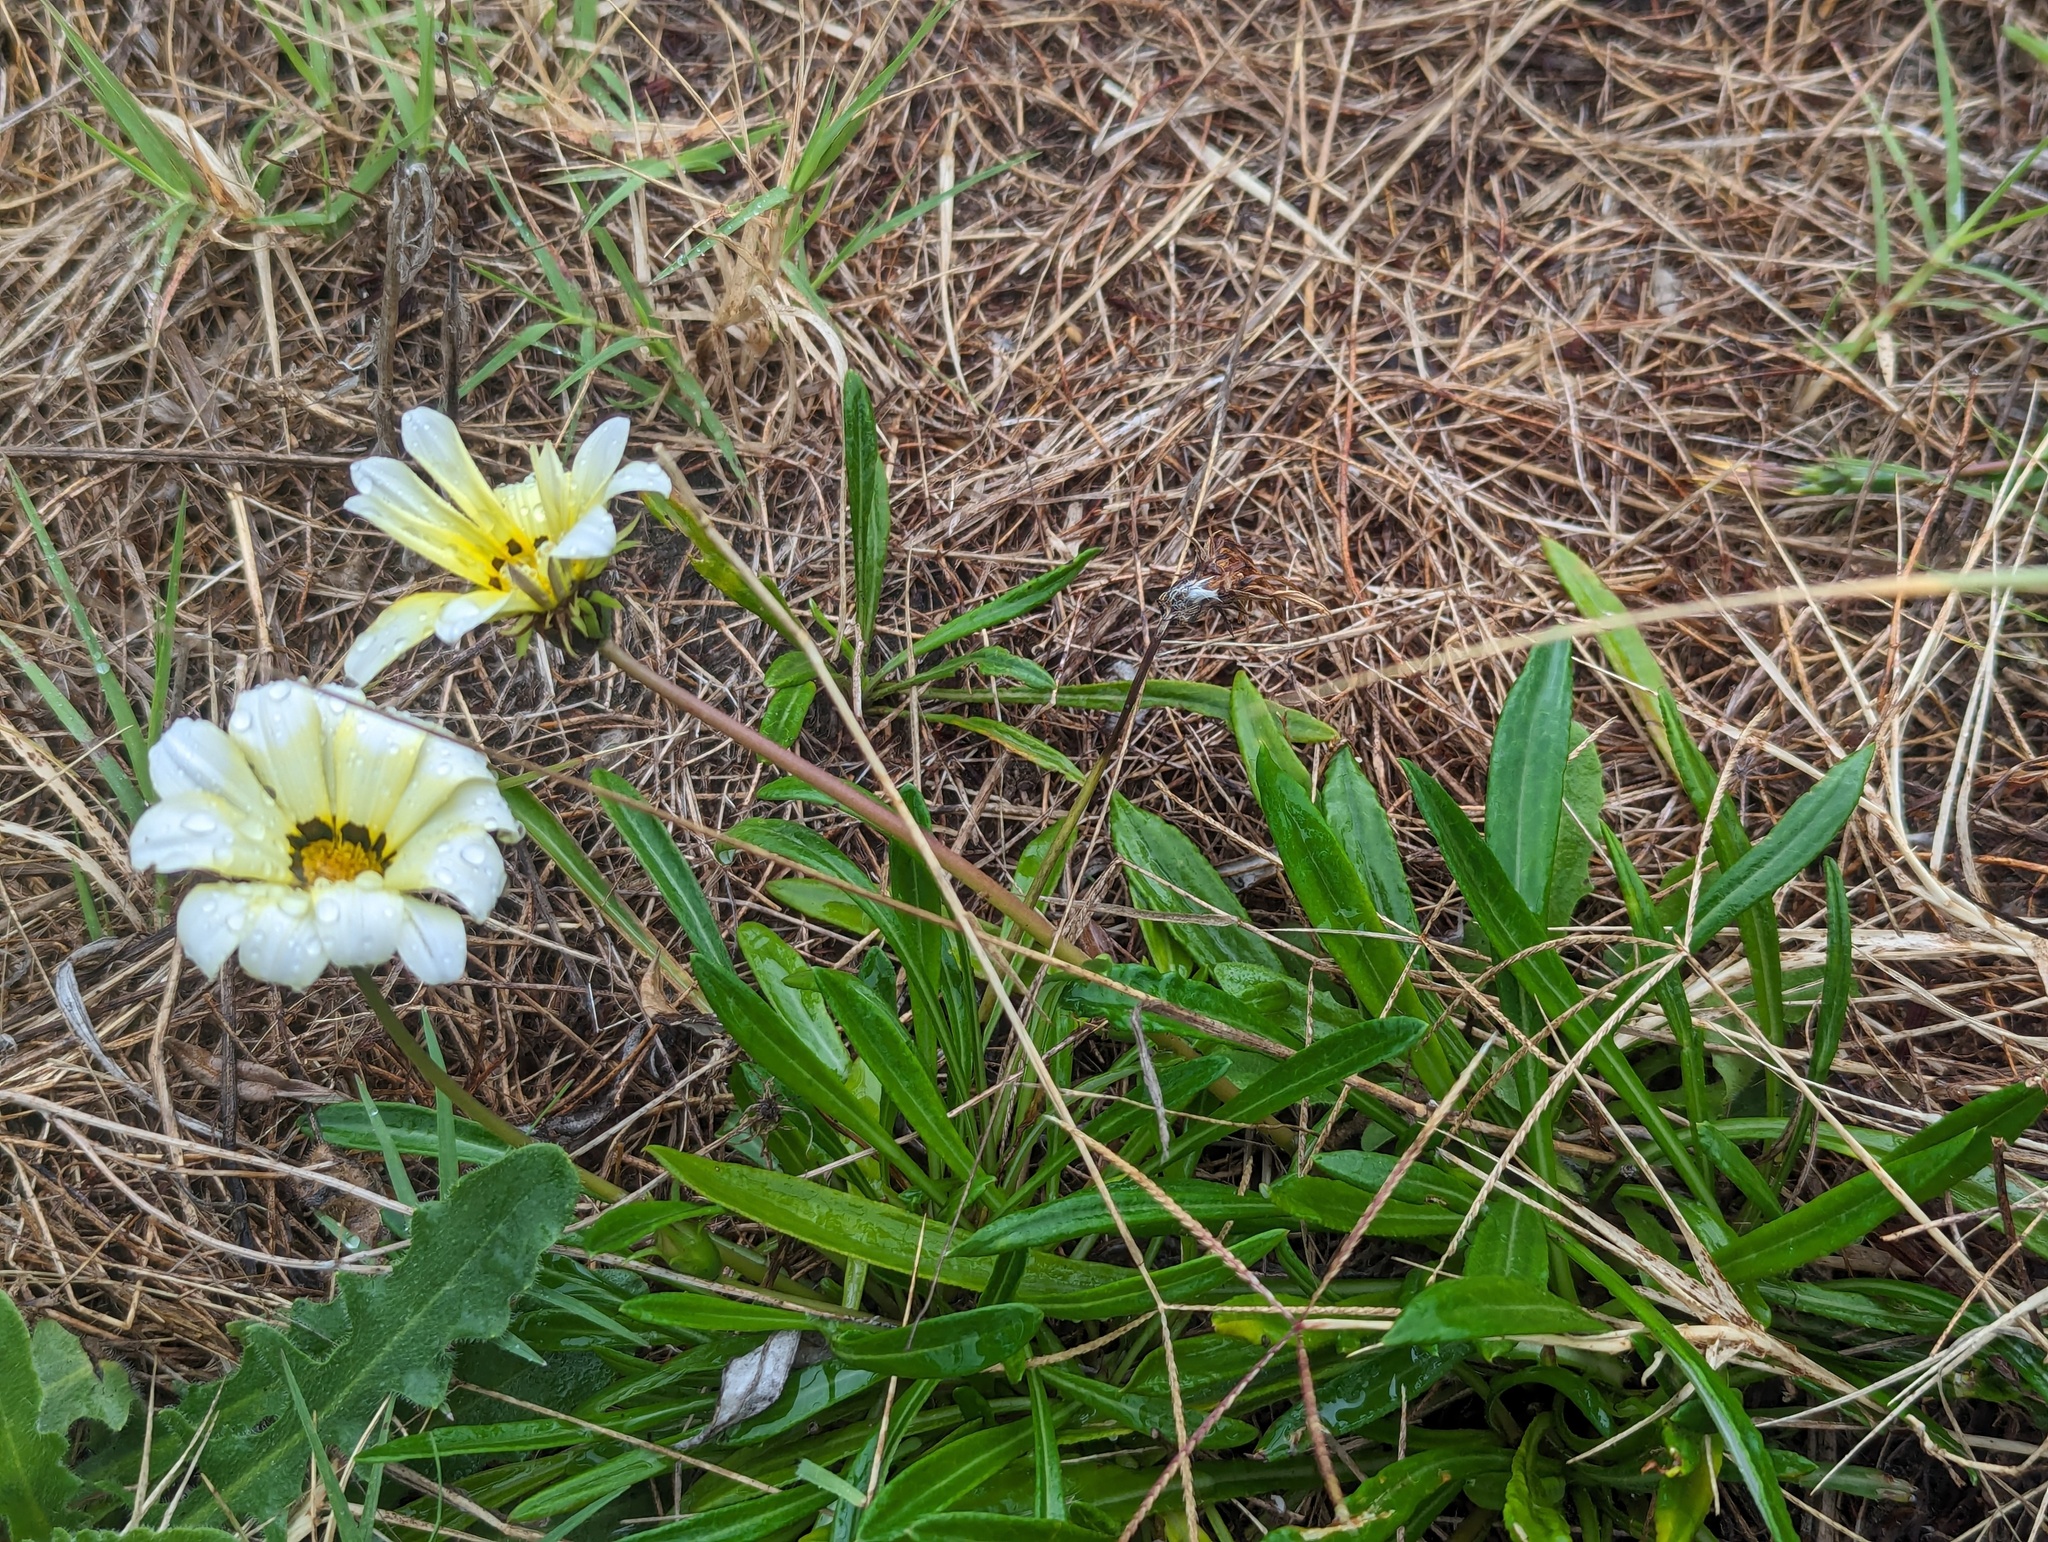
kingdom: Plantae
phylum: Tracheophyta
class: Magnoliopsida
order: Asterales
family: Asteraceae
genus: Gazania
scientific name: Gazania splendens
